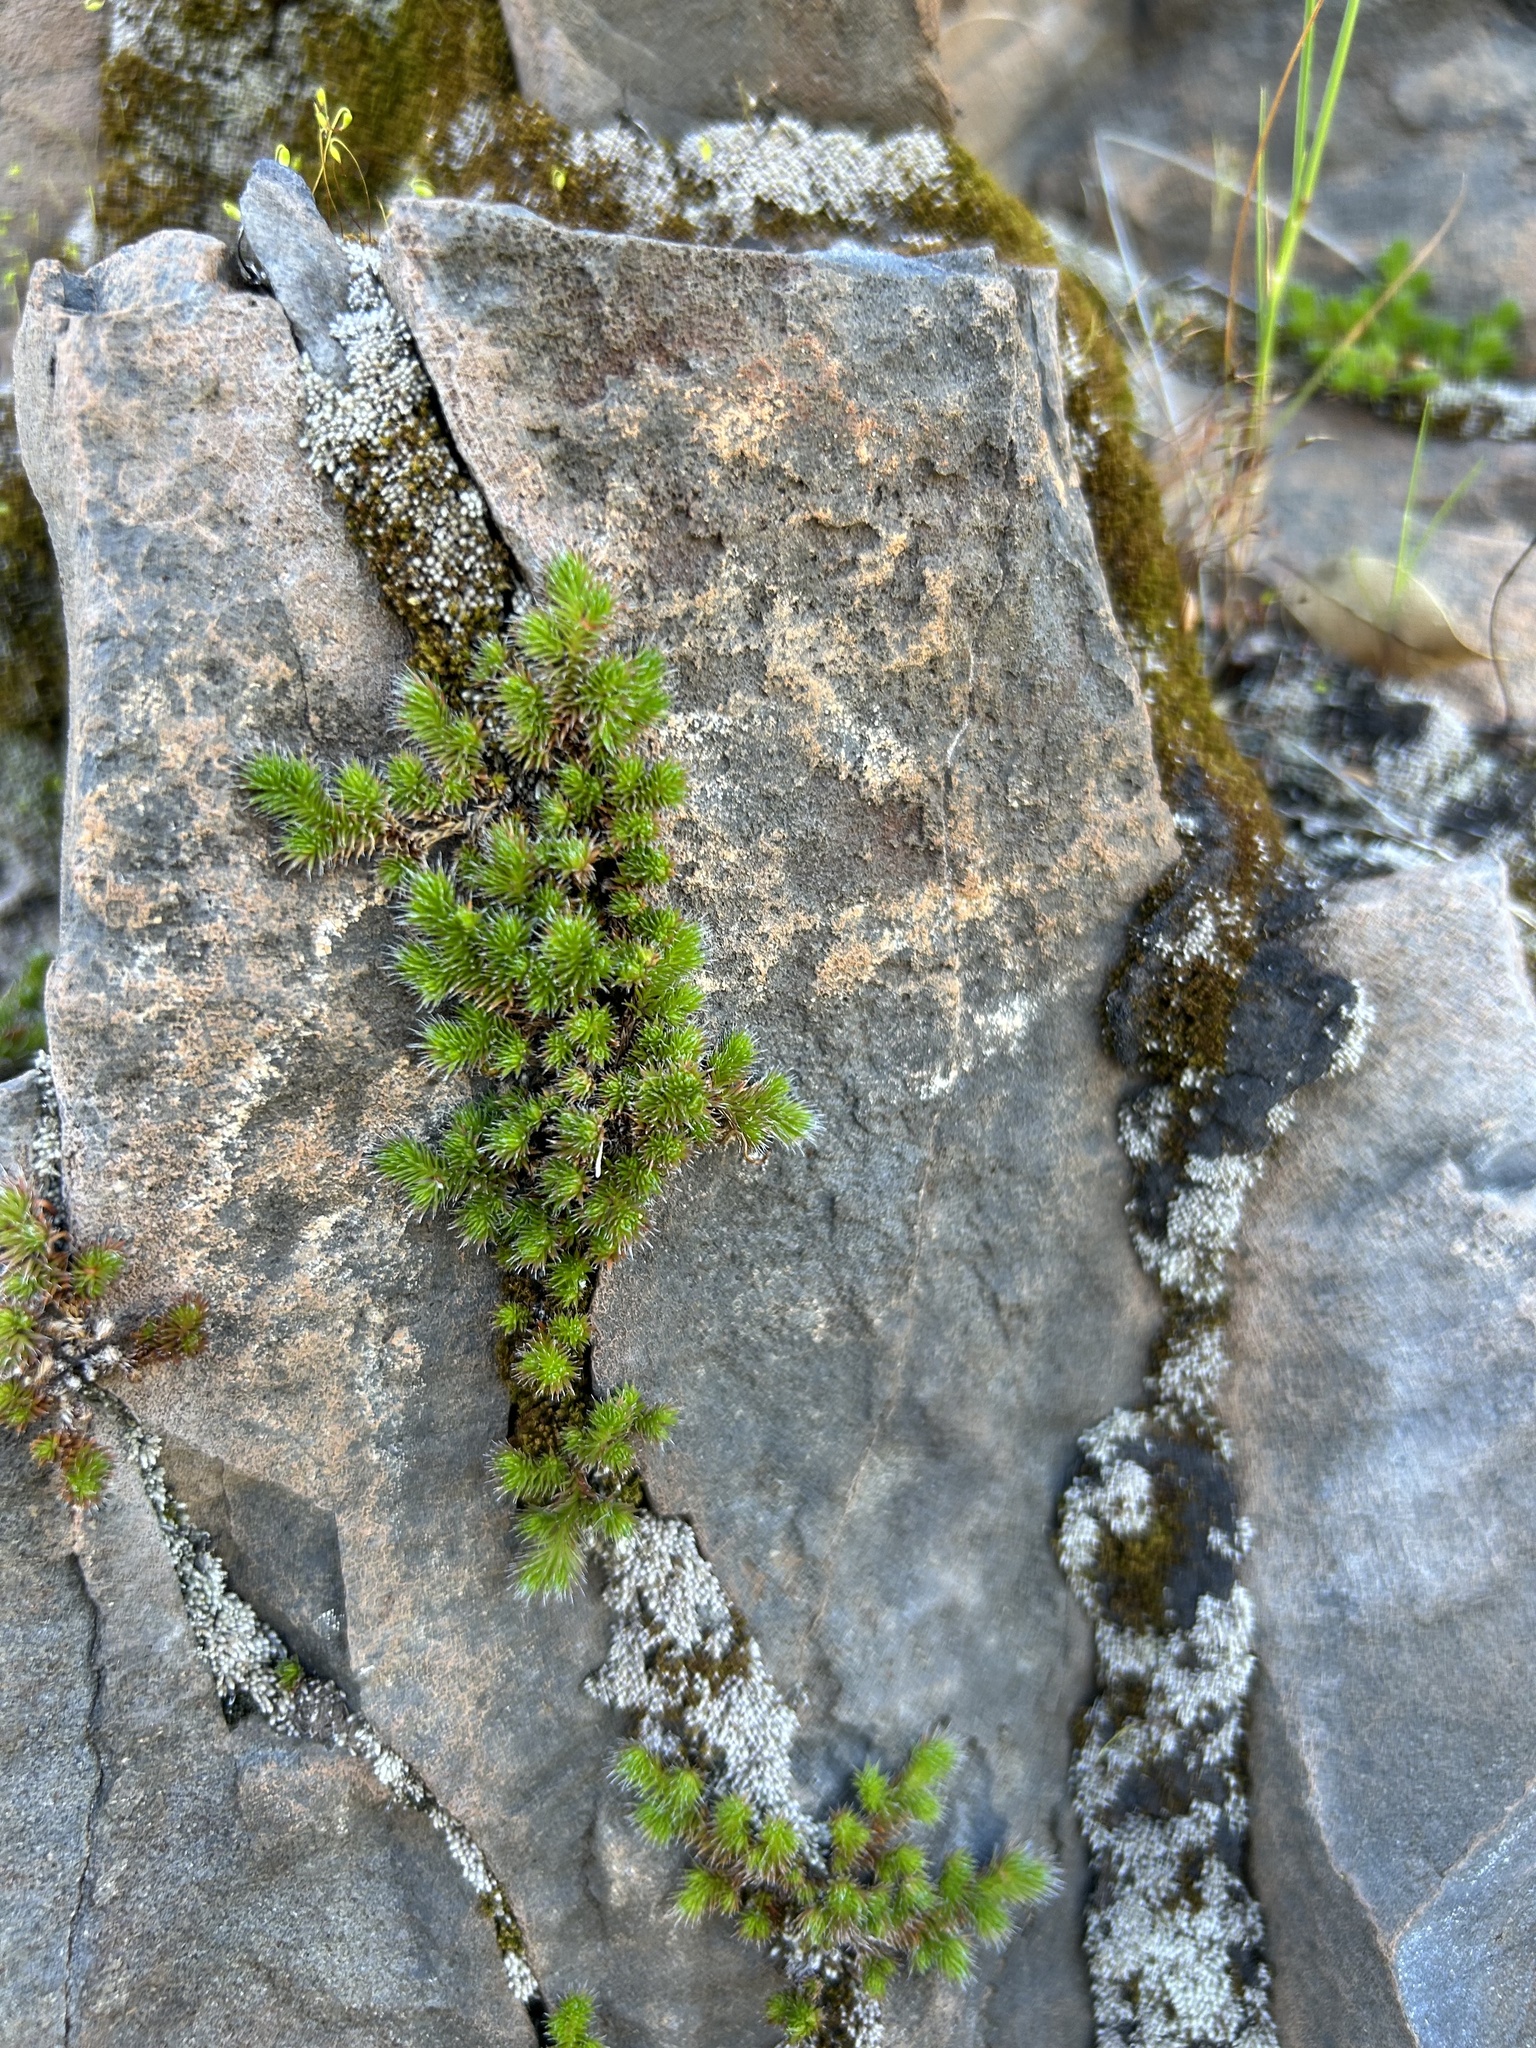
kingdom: Plantae
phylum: Tracheophyta
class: Lycopodiopsida
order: Selaginellales
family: Selaginellaceae
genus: Selaginella
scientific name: Selaginella hansenii
